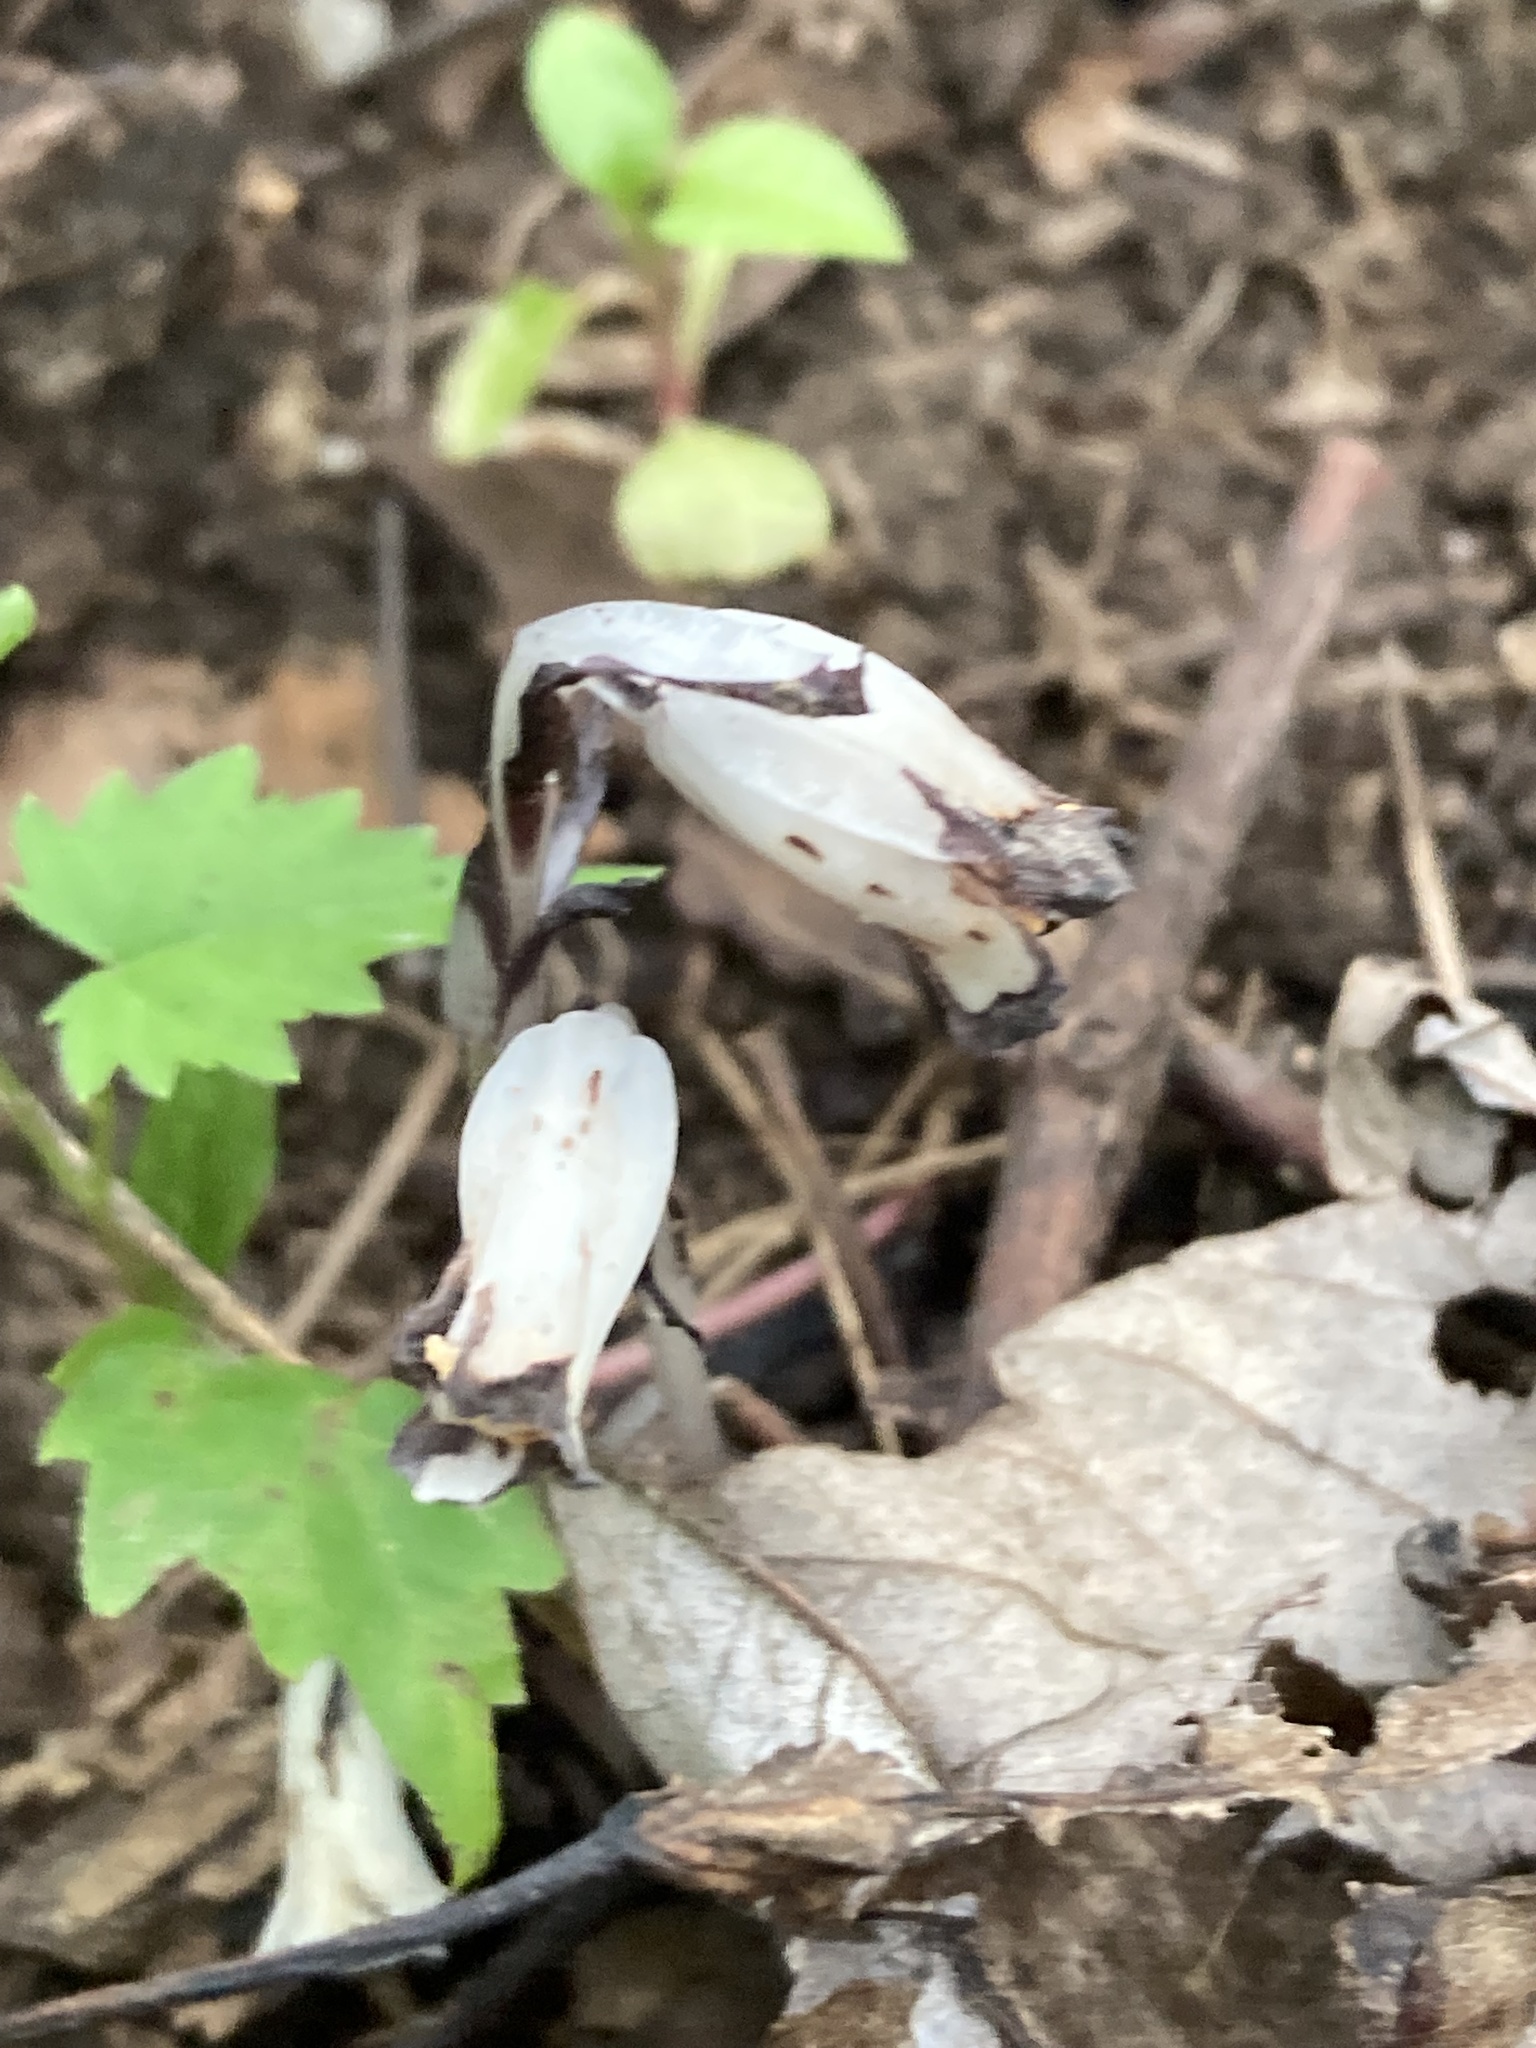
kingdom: Plantae
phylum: Tracheophyta
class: Magnoliopsida
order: Ericales
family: Ericaceae
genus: Monotropa
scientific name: Monotropa uniflora
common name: Convulsion root
